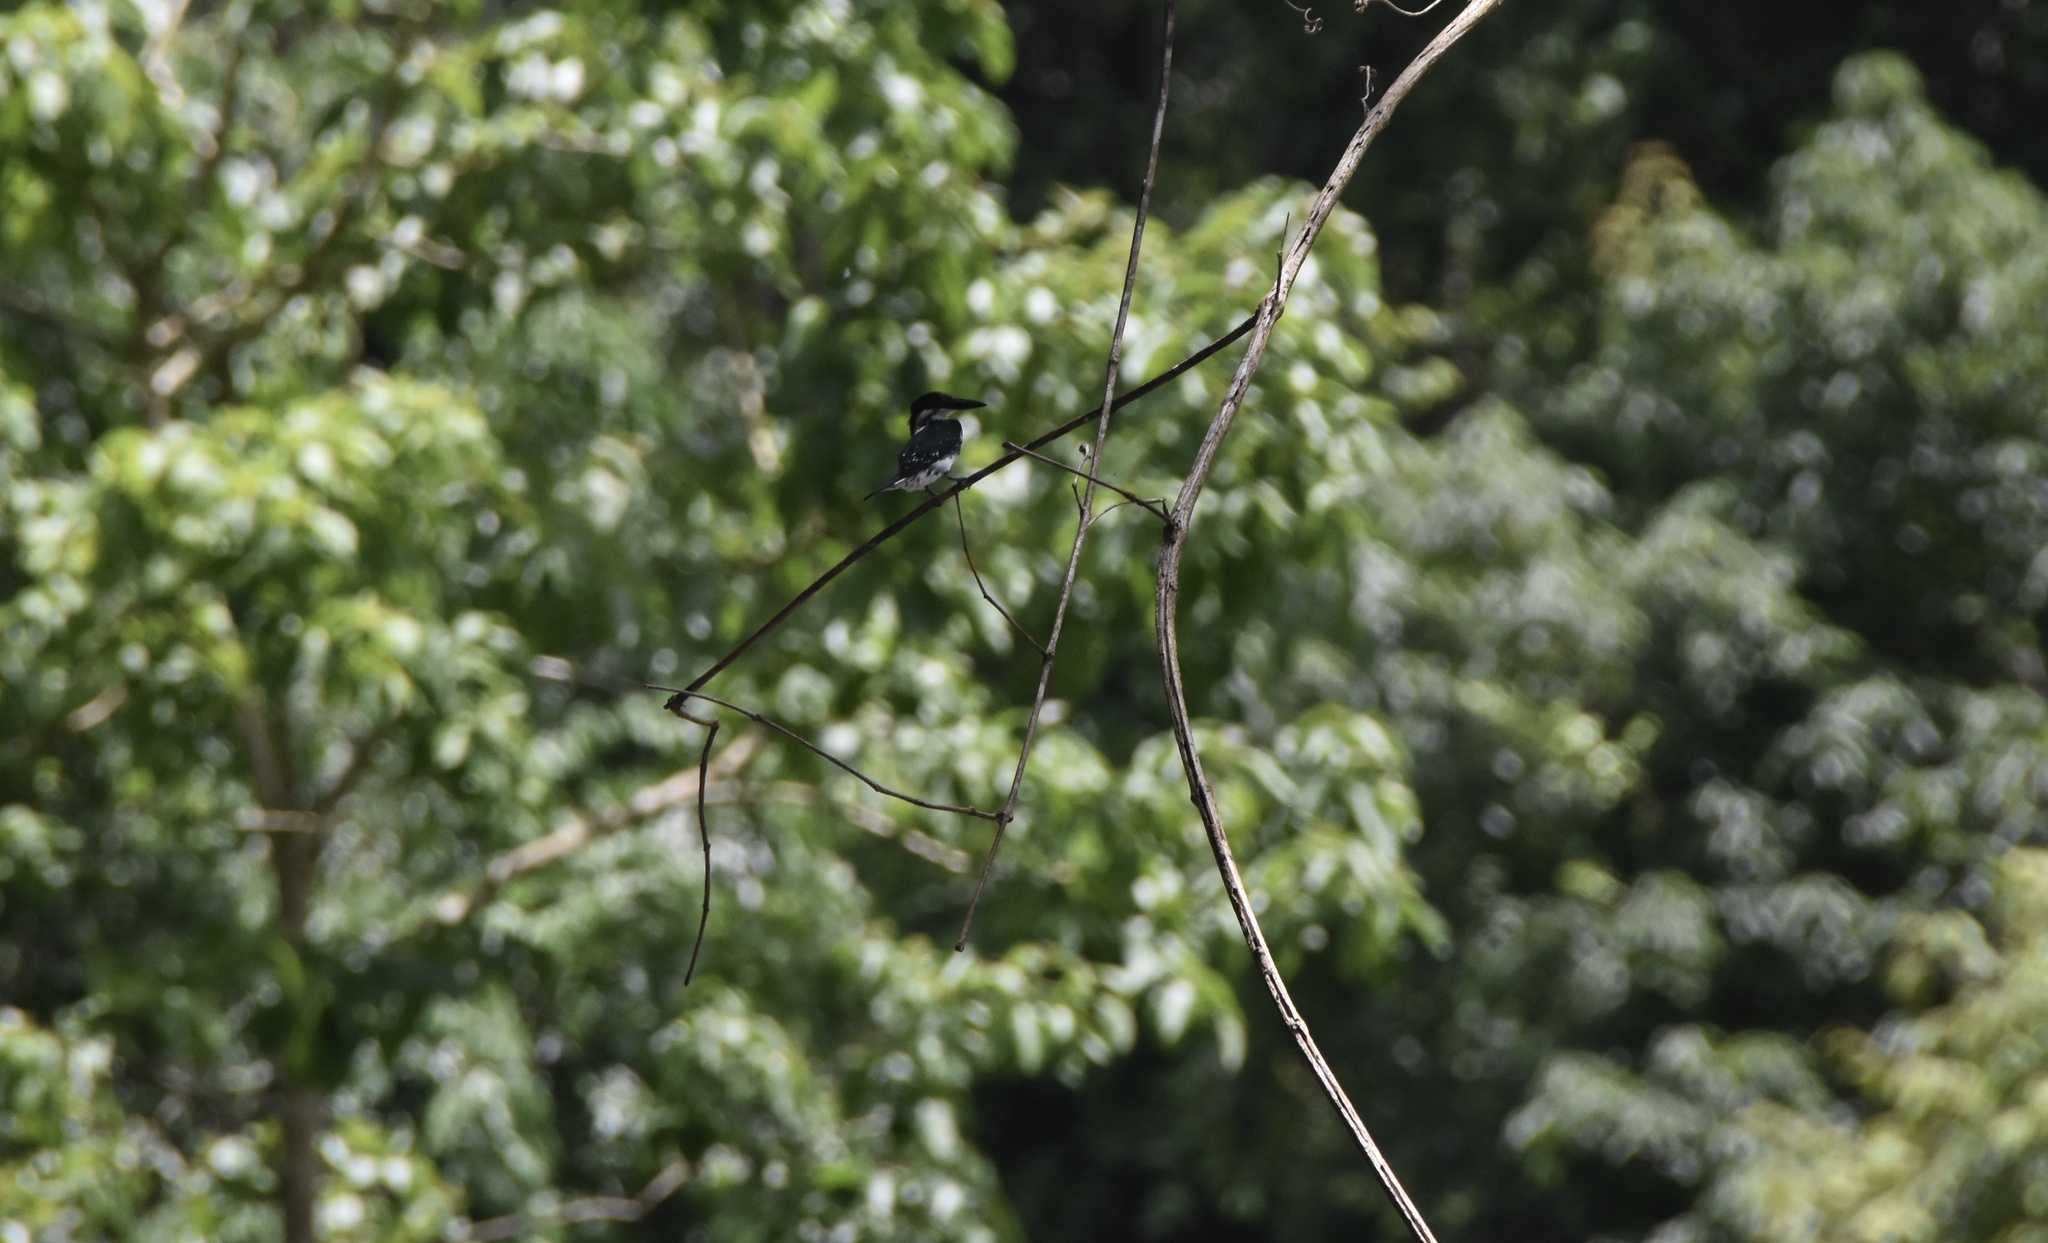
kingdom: Animalia
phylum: Chordata
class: Aves
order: Coraciiformes
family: Alcedinidae
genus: Chloroceryle
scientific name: Chloroceryle americana
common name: Green kingfisher
